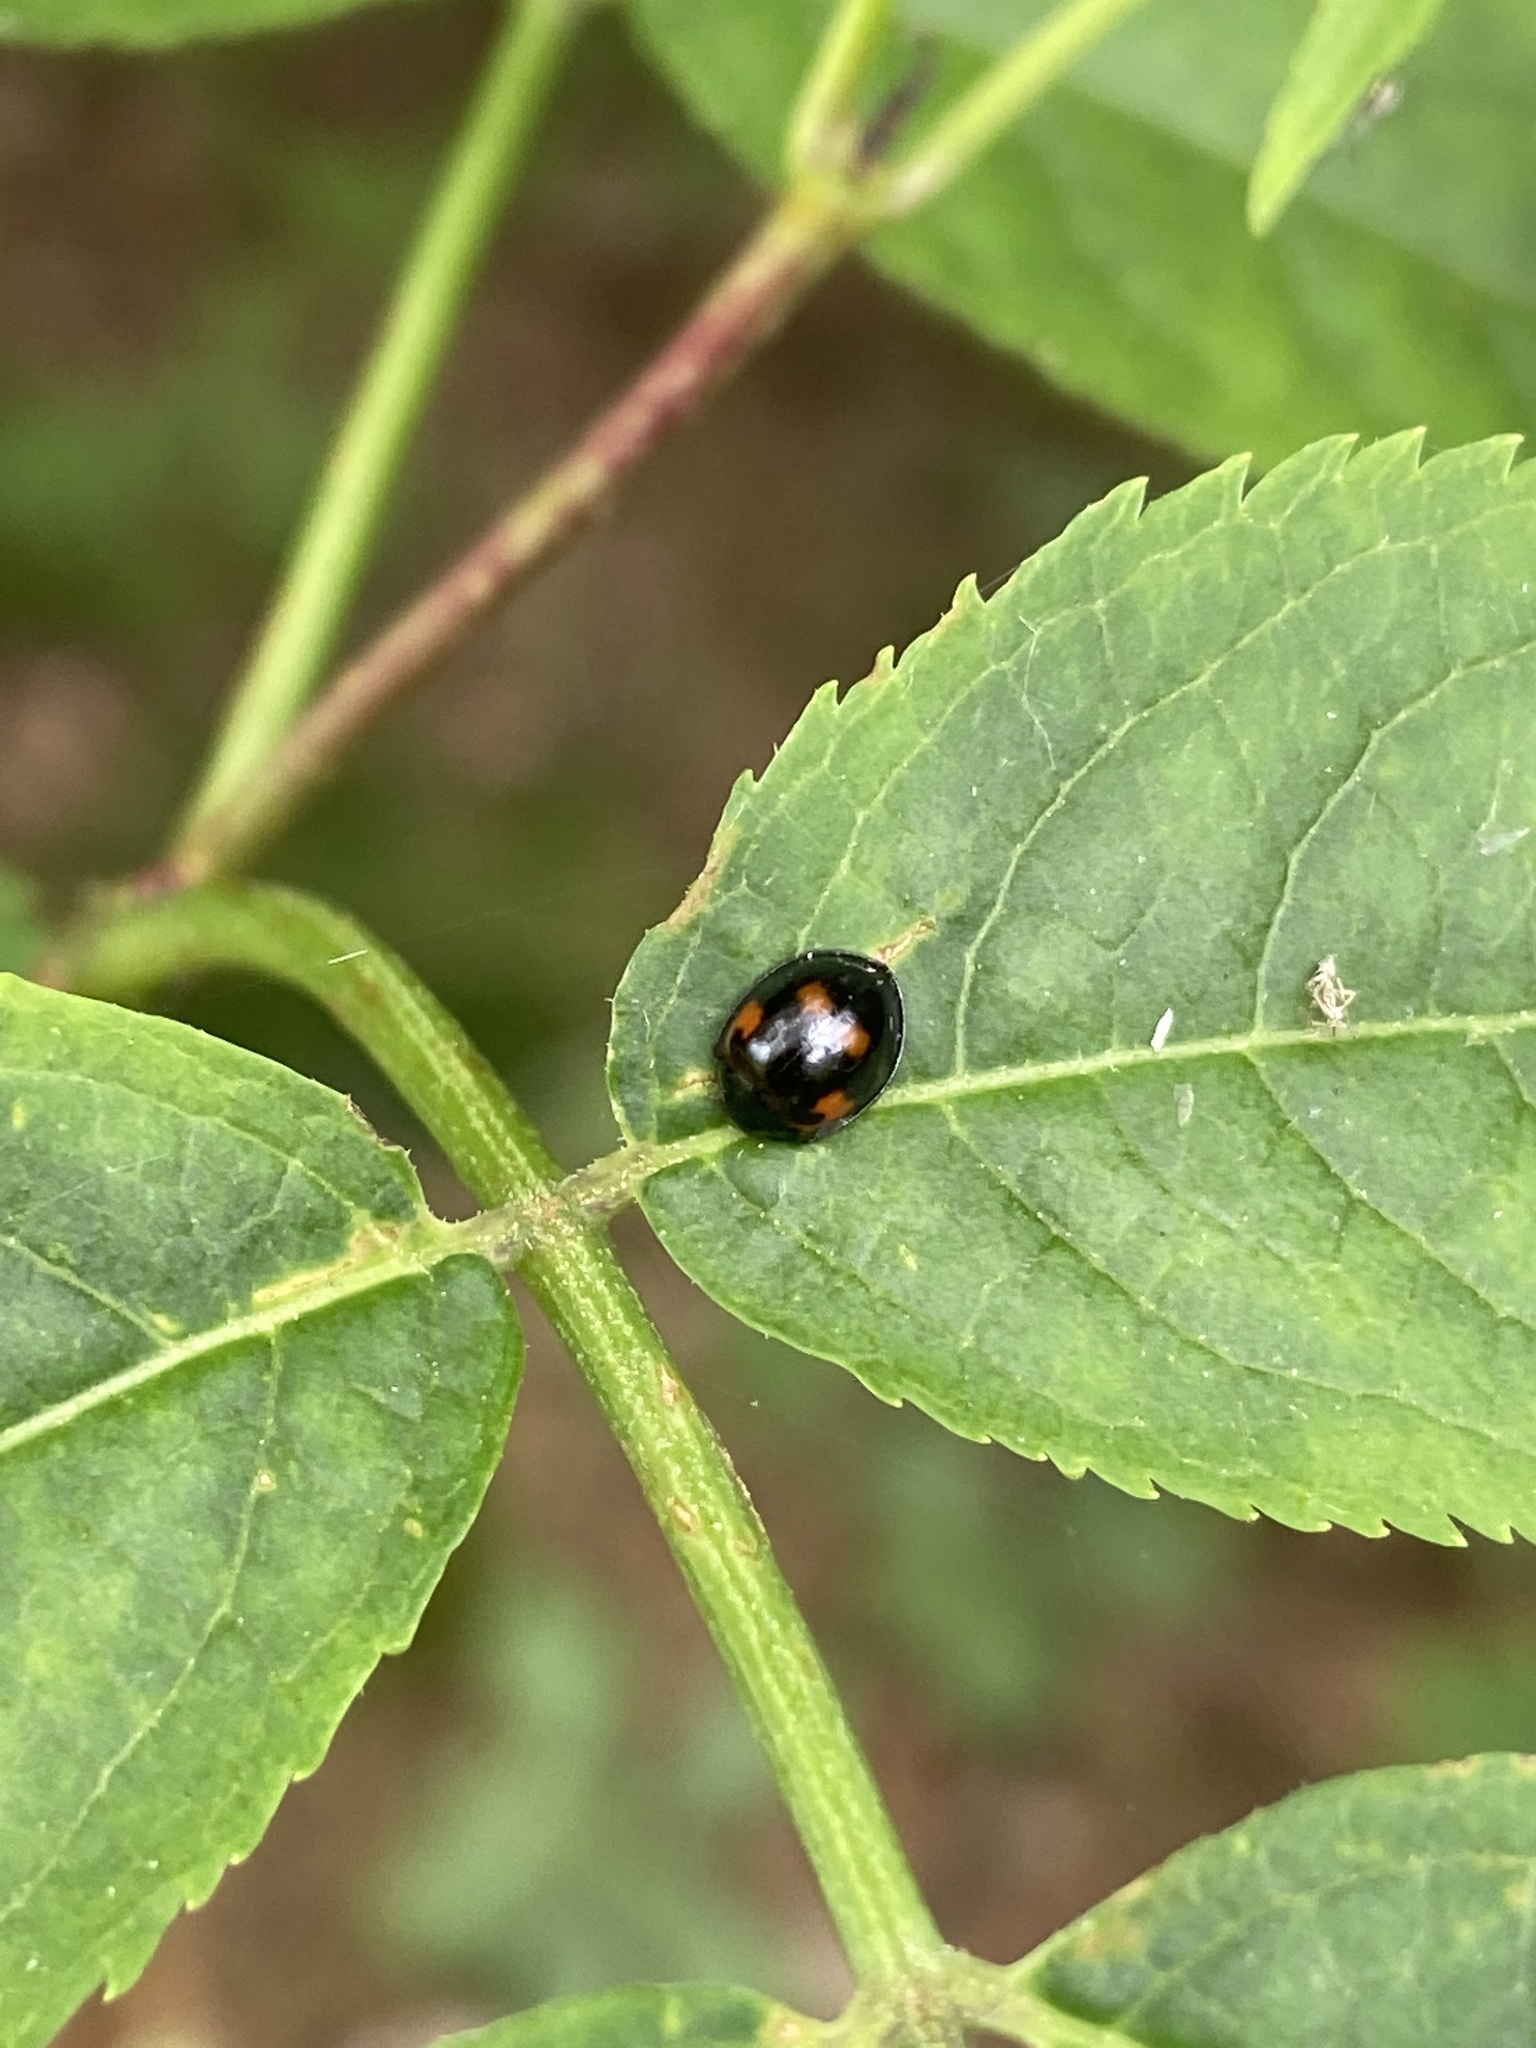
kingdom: Animalia
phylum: Arthropoda
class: Insecta
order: Coleoptera
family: Coccinellidae
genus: Brumus
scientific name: Brumus quadripustulatus
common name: Ladybird beetle
